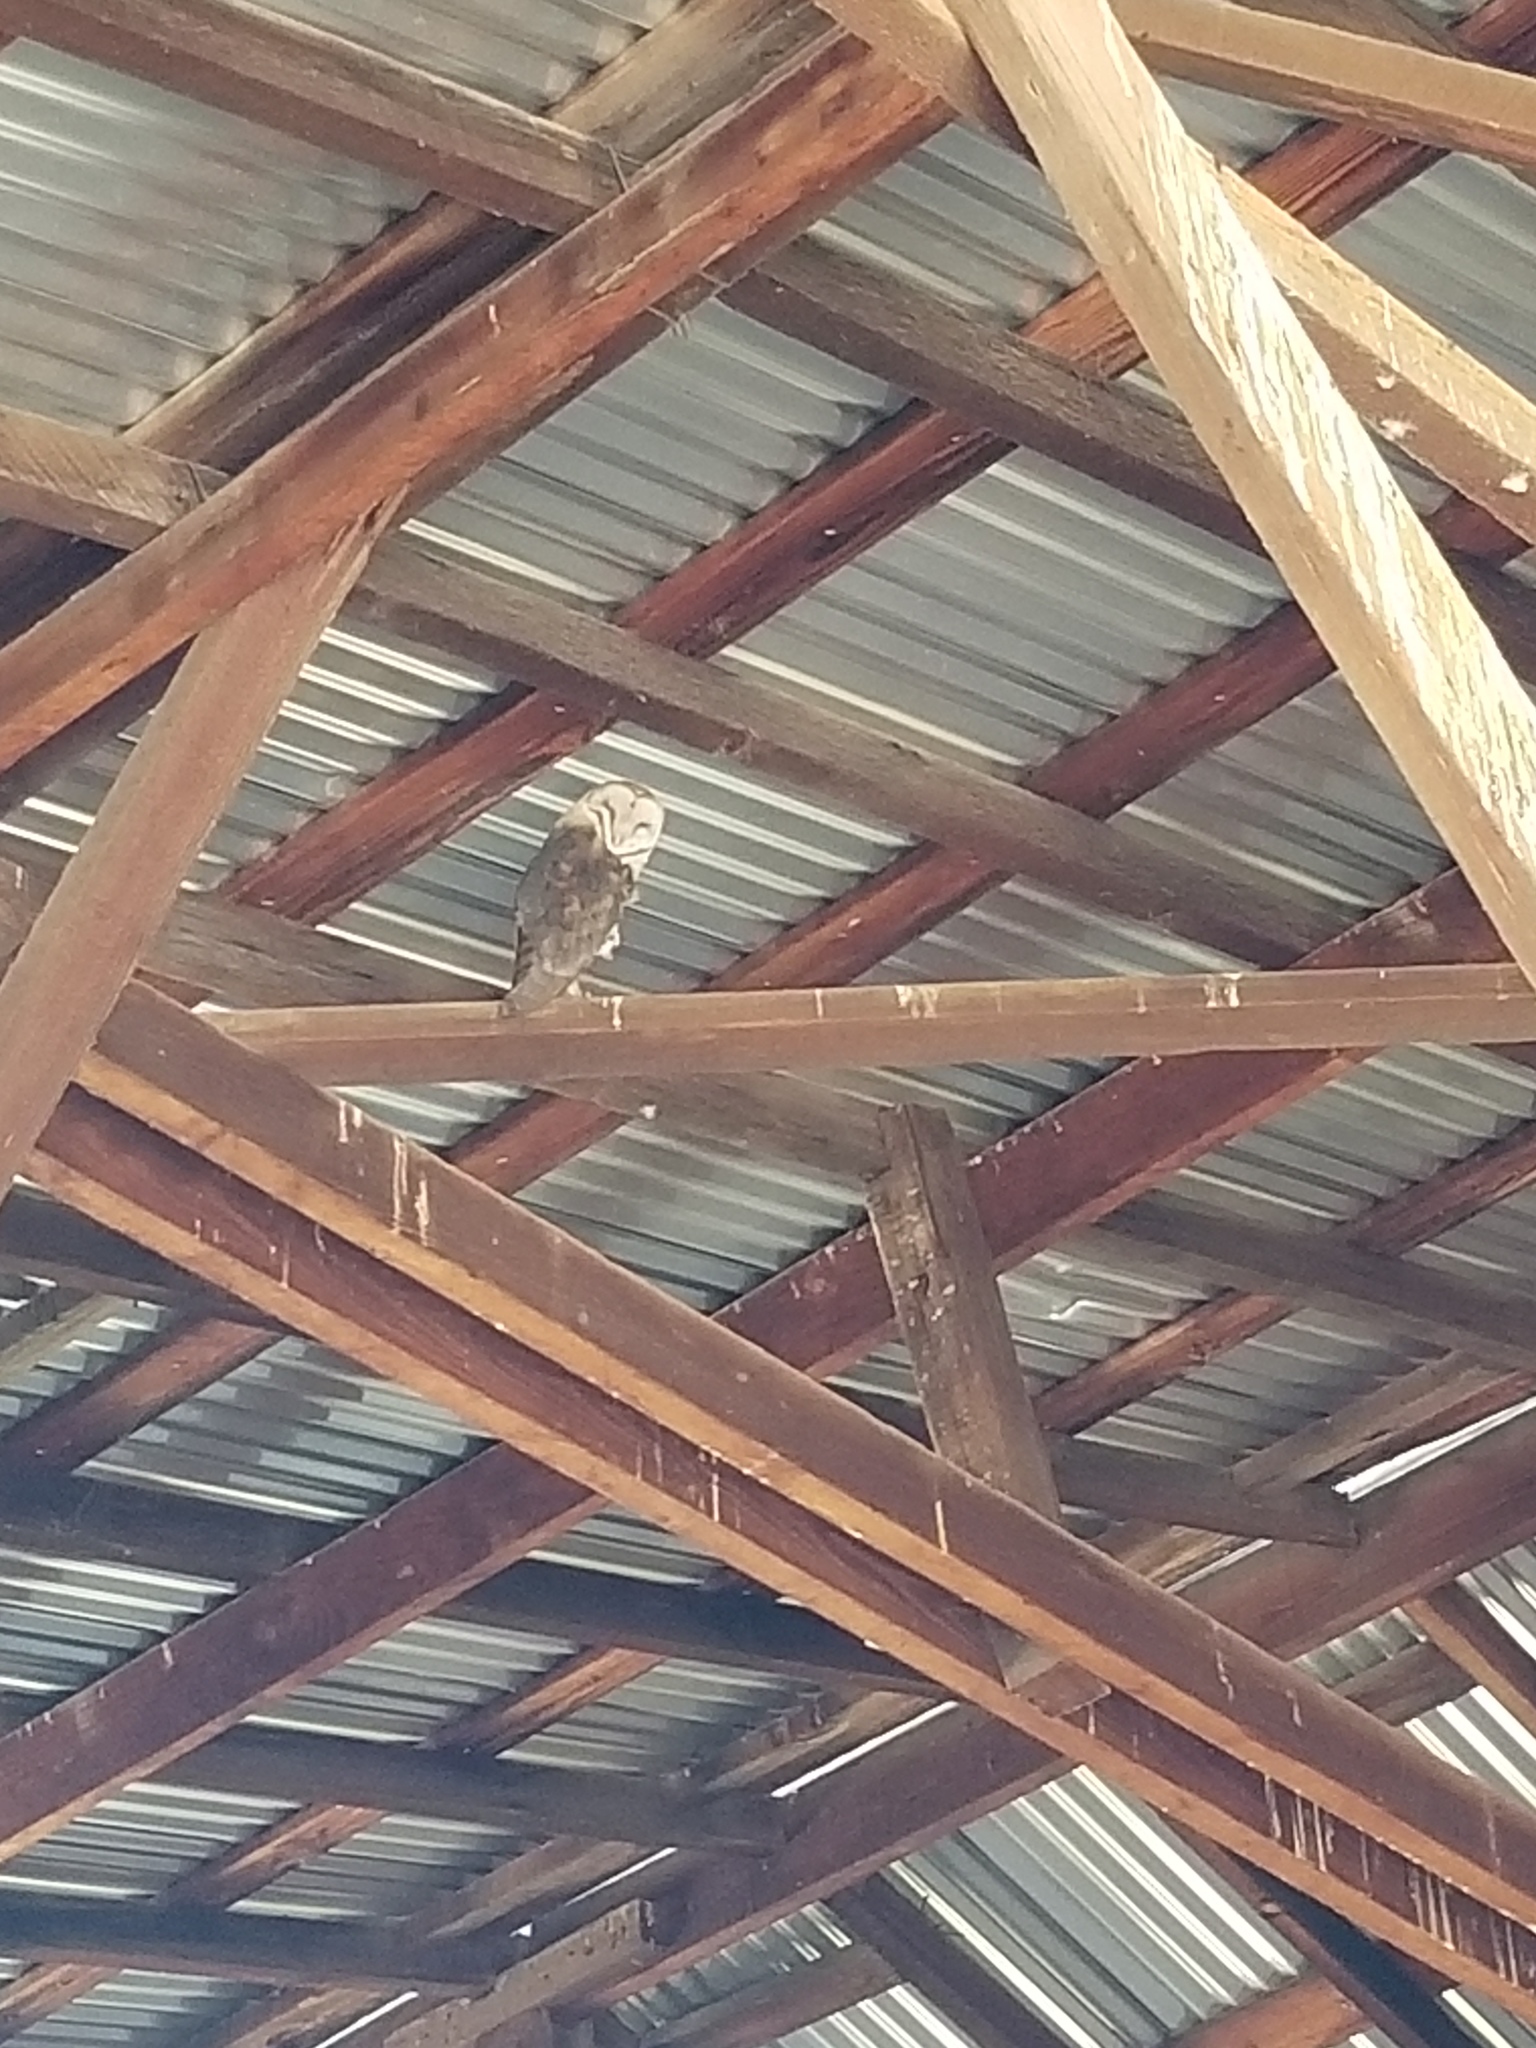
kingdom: Animalia
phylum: Chordata
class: Aves
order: Strigiformes
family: Tytonidae
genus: Tyto
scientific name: Tyto alba
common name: Barn owl
